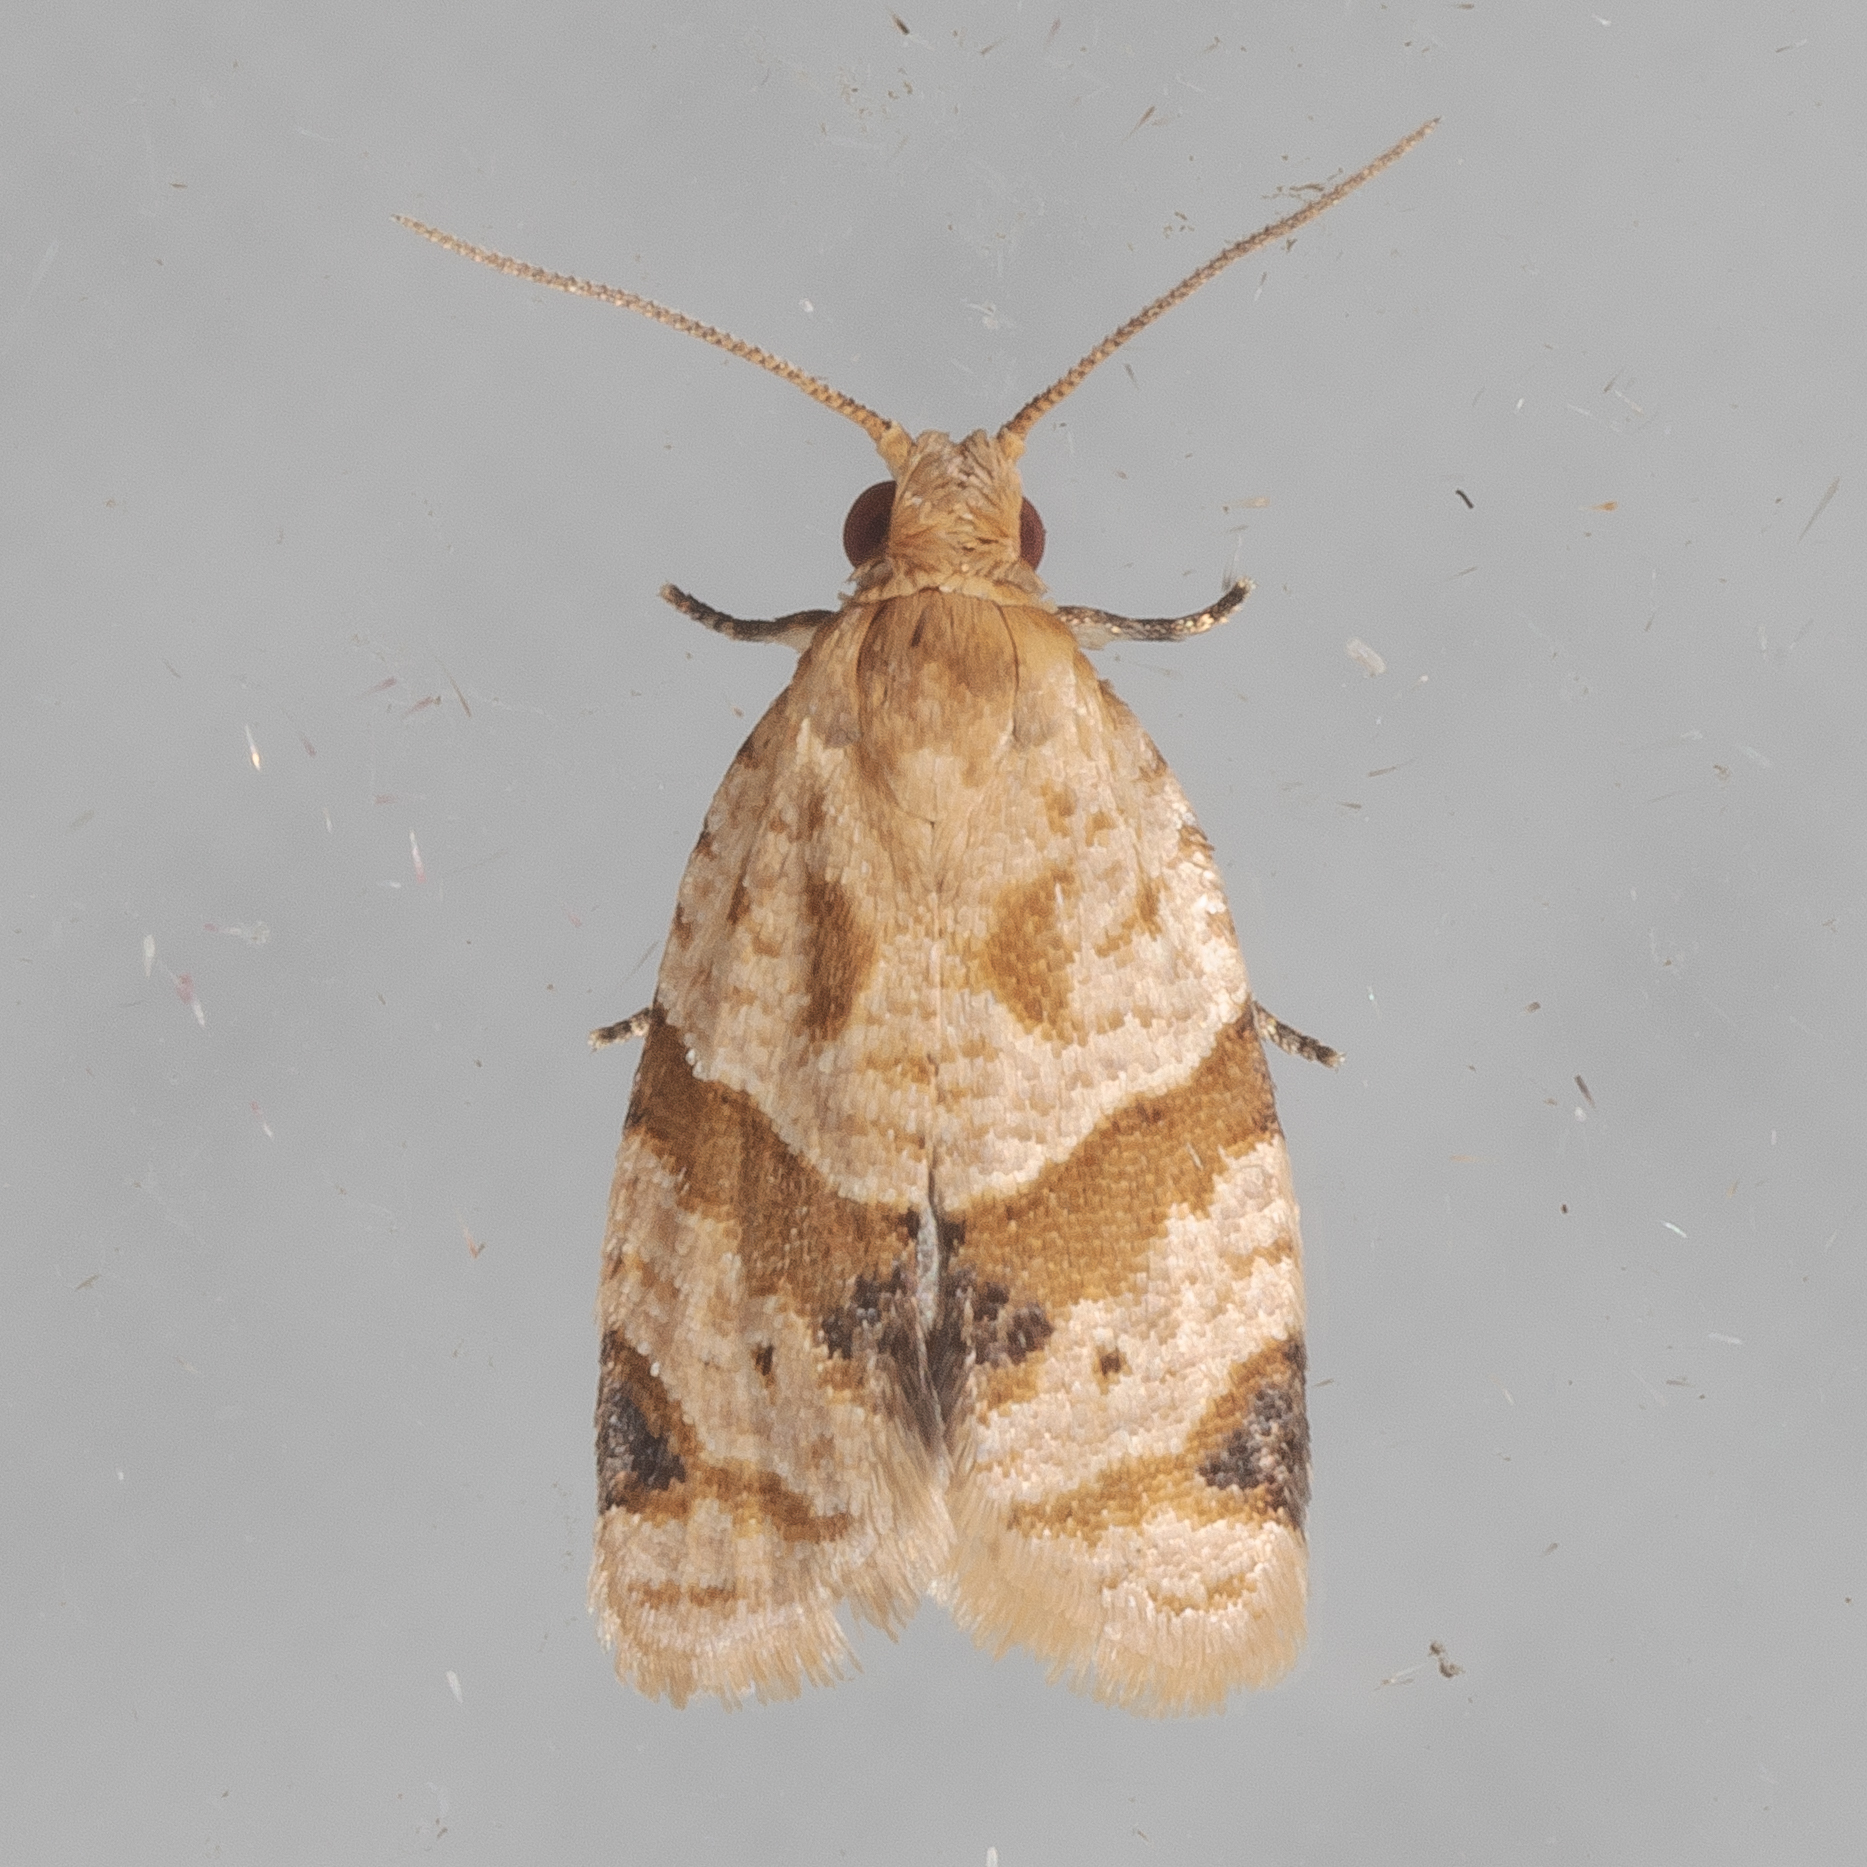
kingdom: Animalia
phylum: Arthropoda
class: Insecta
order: Lepidoptera
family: Tortricidae
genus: Clepsis
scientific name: Clepsis peritana
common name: Garden tortrix
